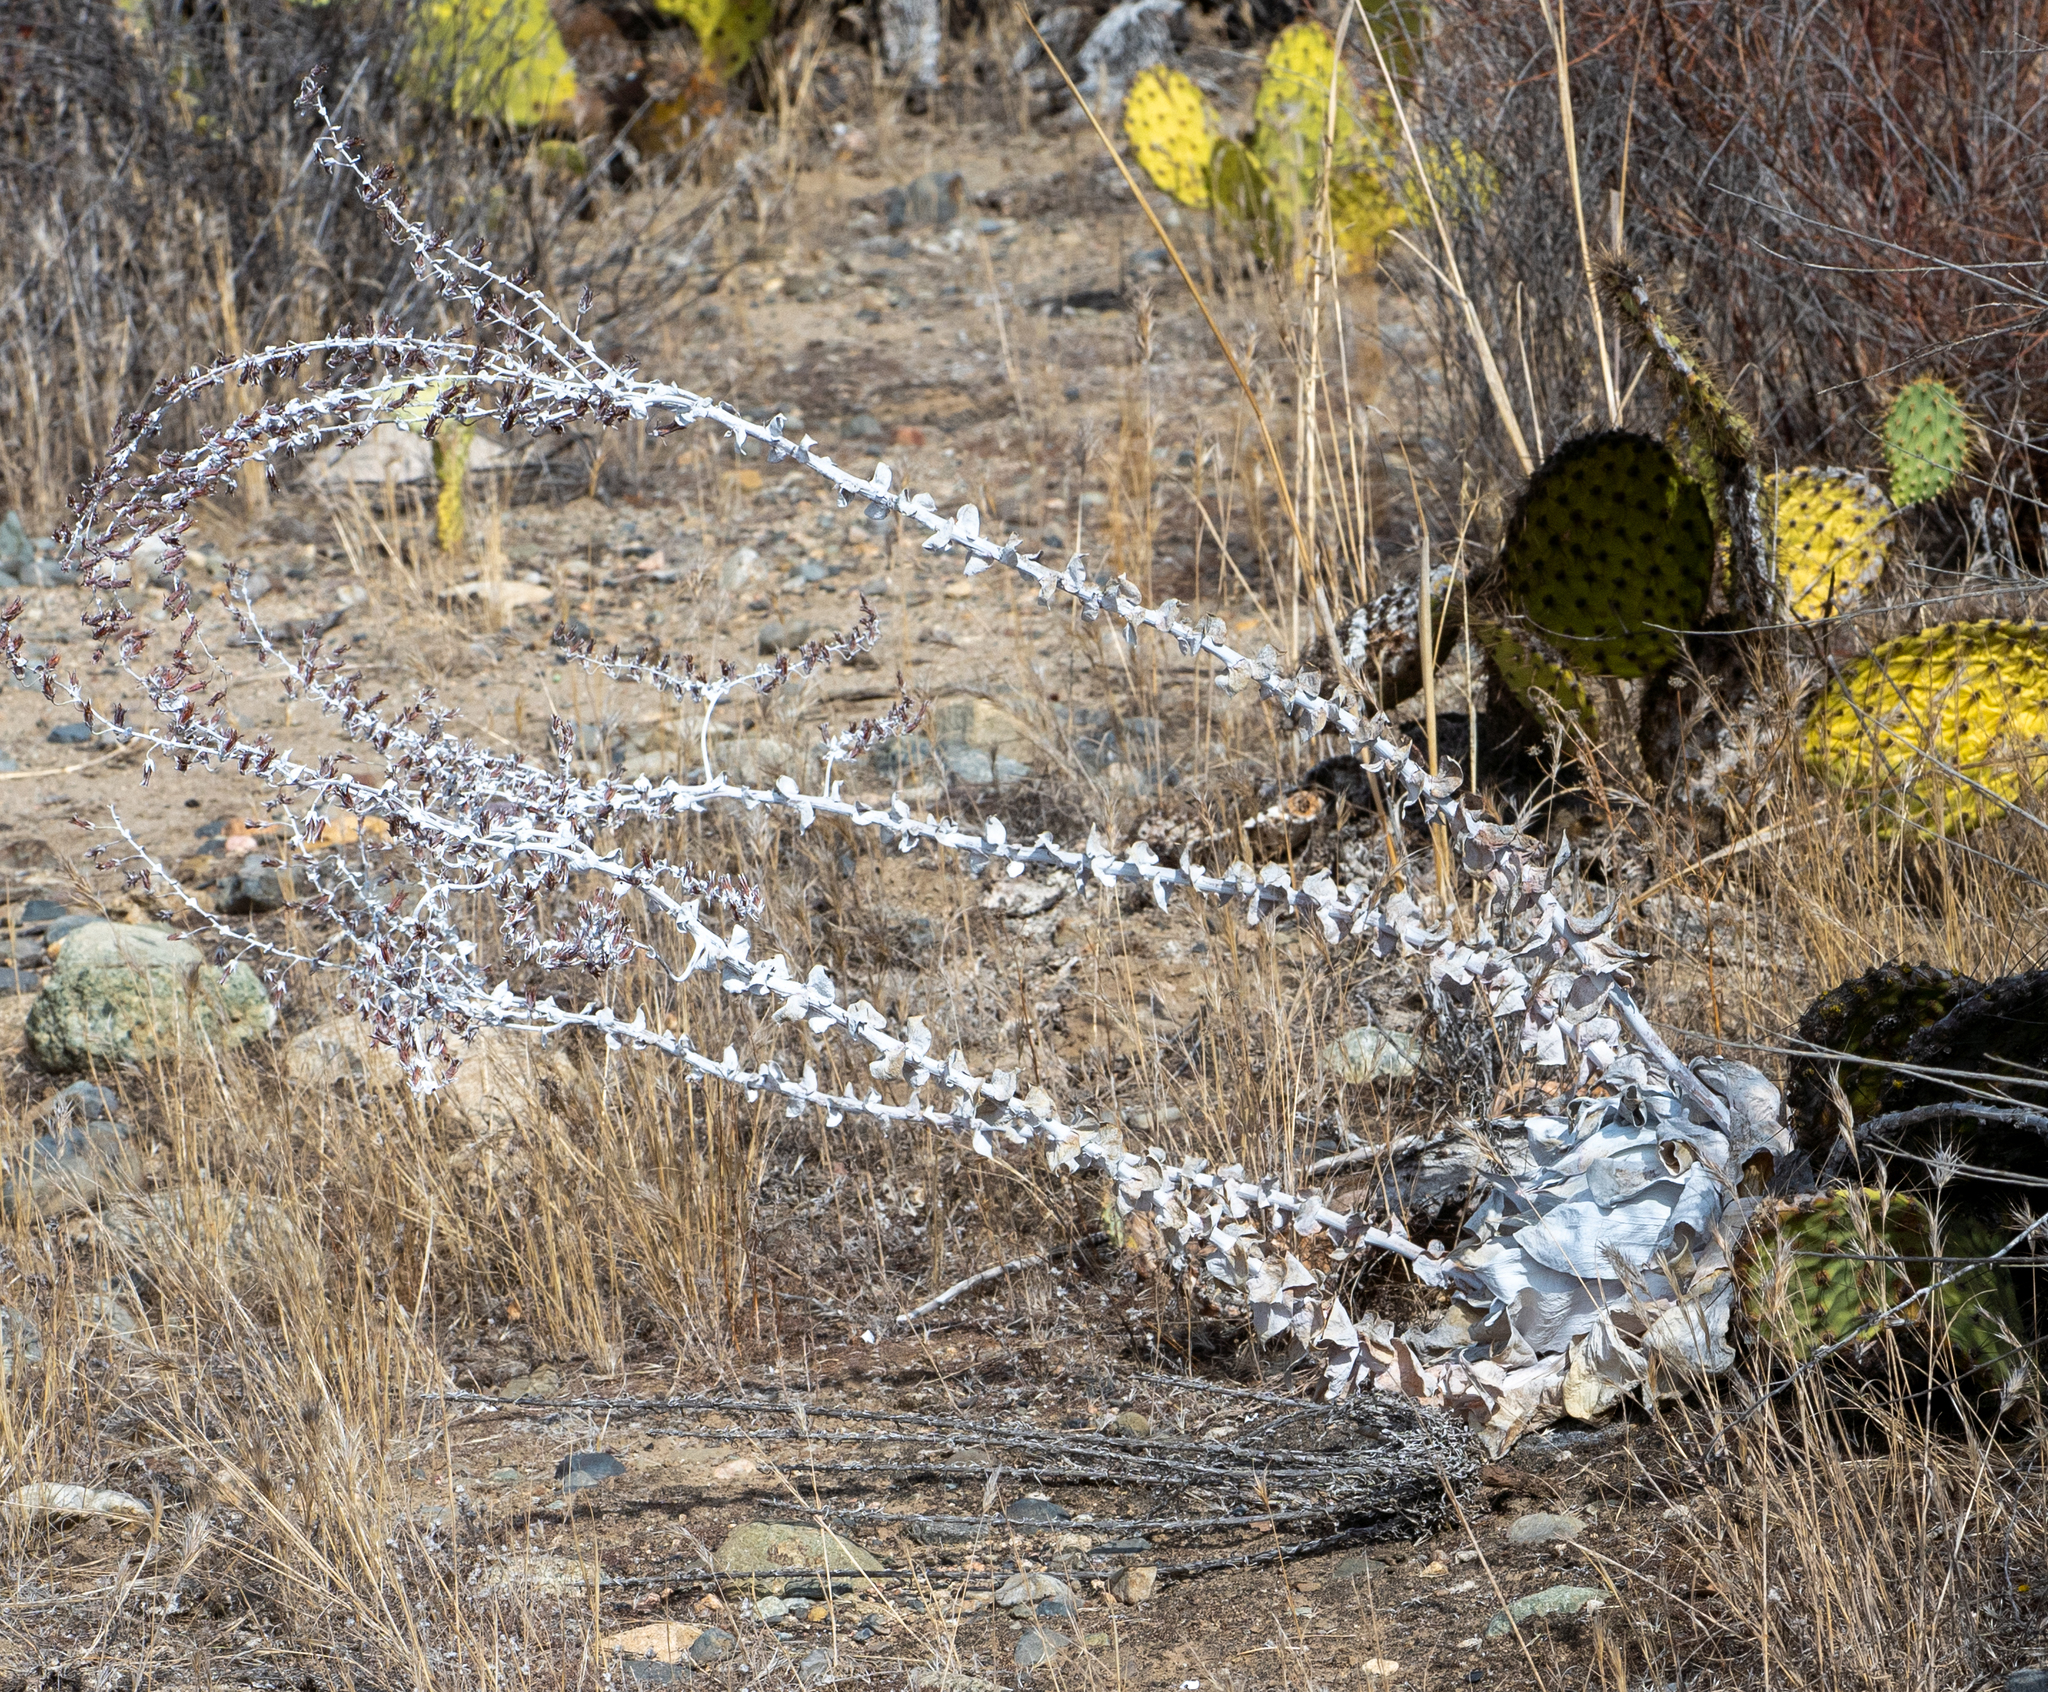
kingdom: Plantae
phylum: Tracheophyta
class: Magnoliopsida
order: Saxifragales
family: Crassulaceae
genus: Dudleya
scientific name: Dudleya pulverulenta
